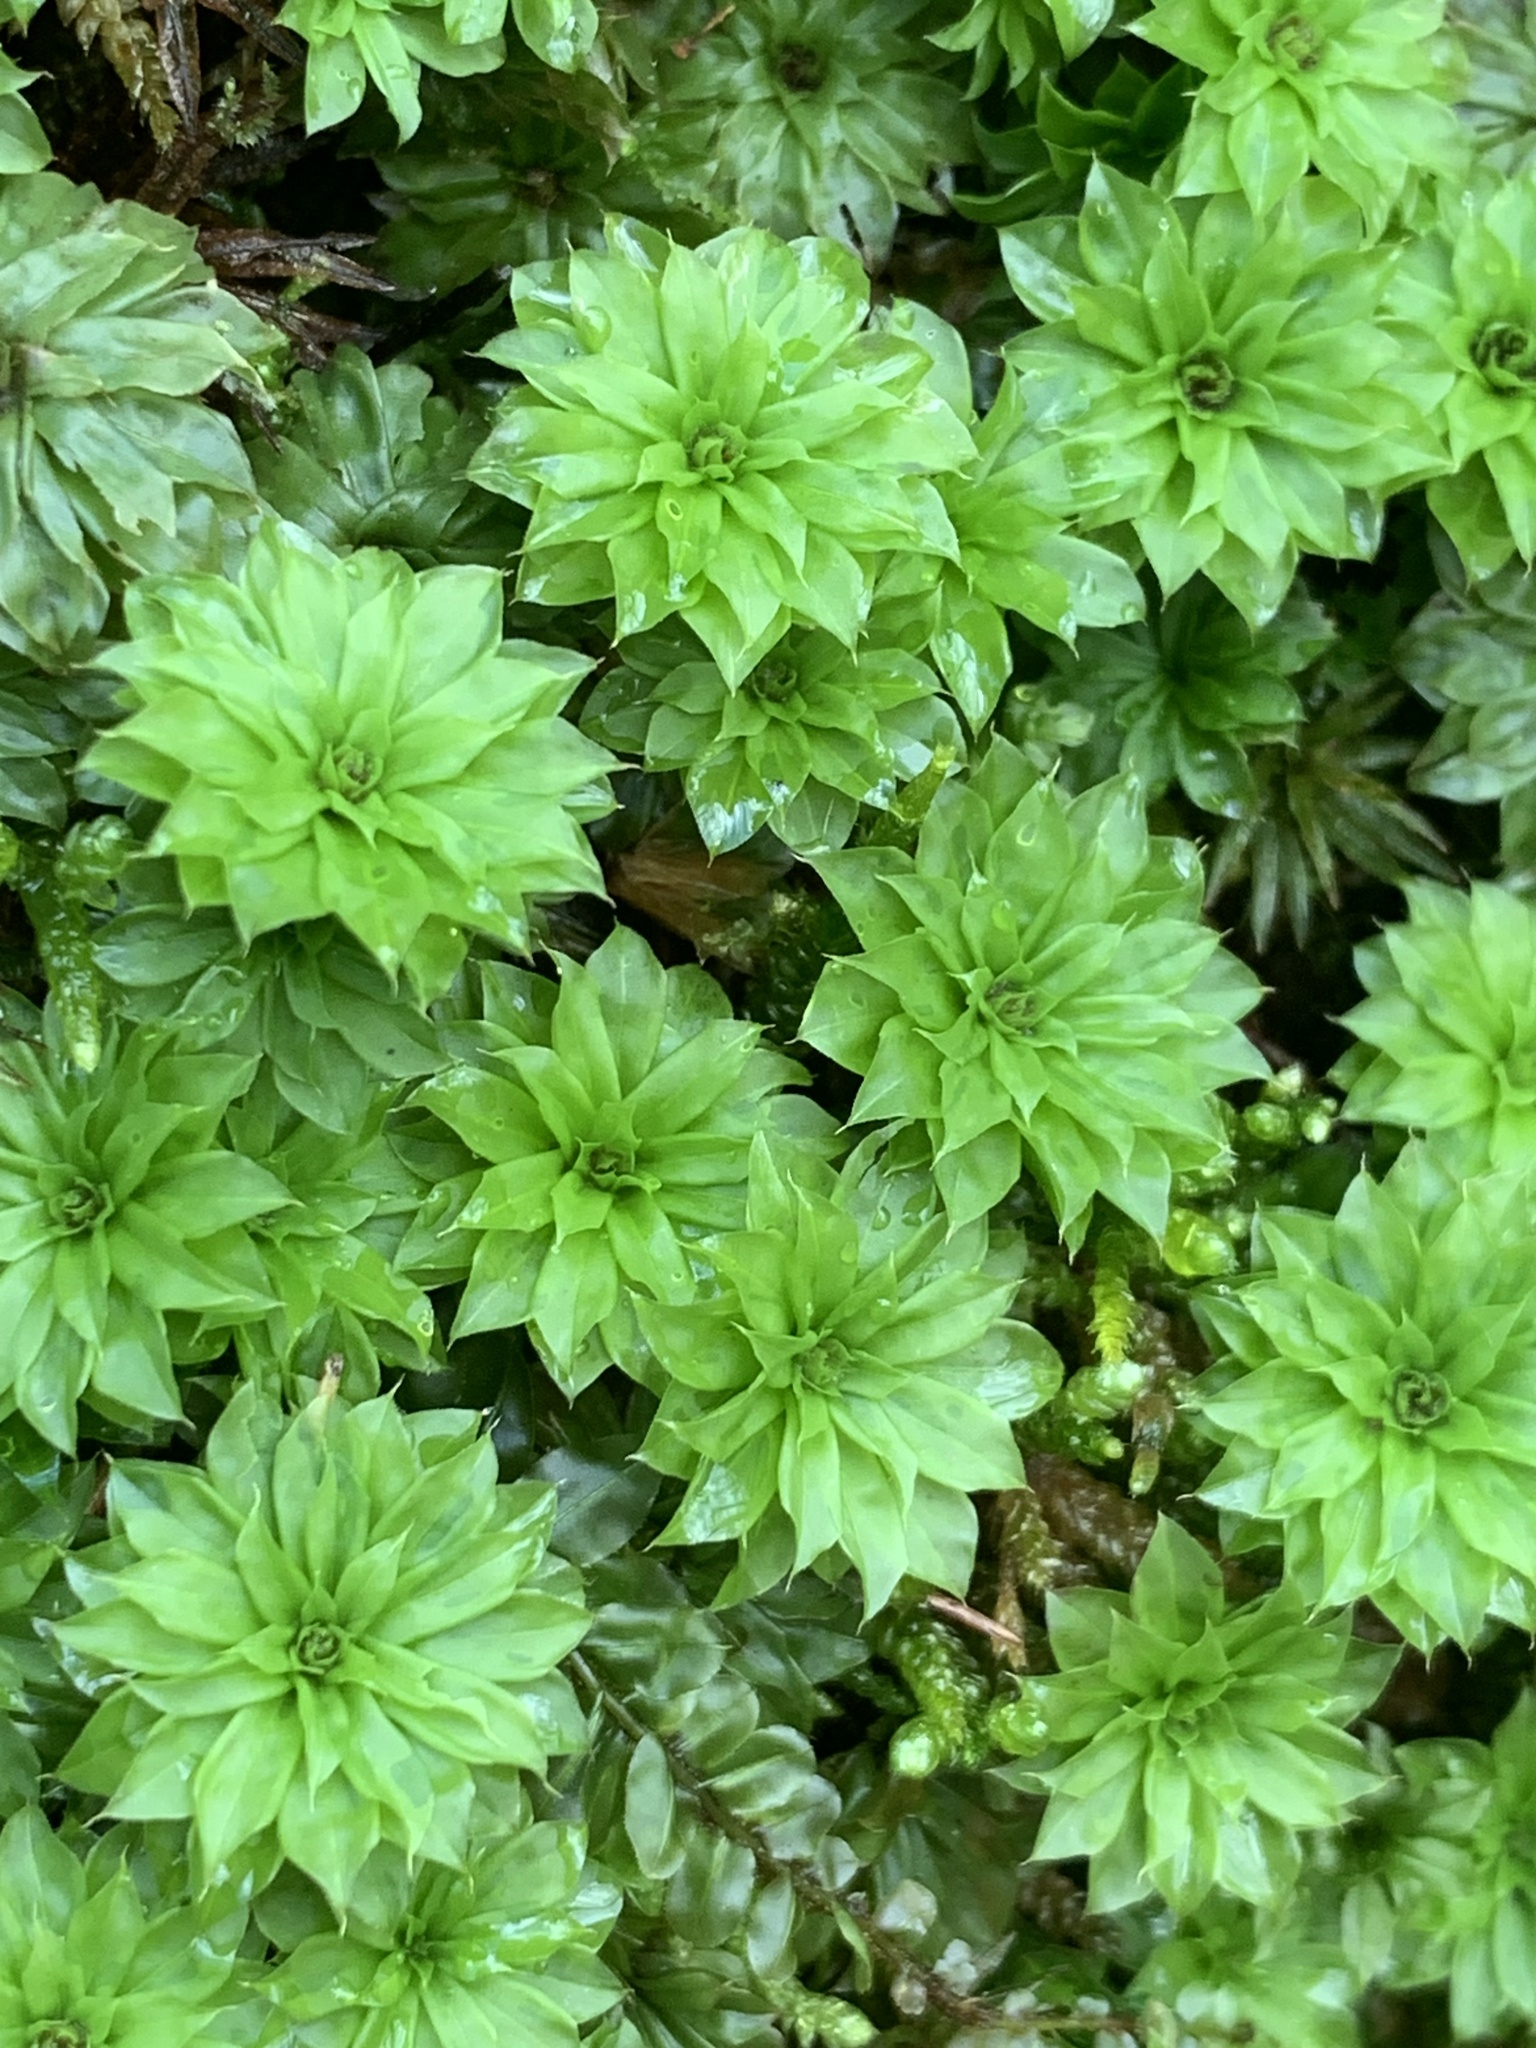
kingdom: Plantae
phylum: Bryophyta
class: Bryopsida
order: Bryales
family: Bryaceae
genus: Rhodobryum
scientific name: Rhodobryum ontariense
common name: Ontario rhodobryum moss
